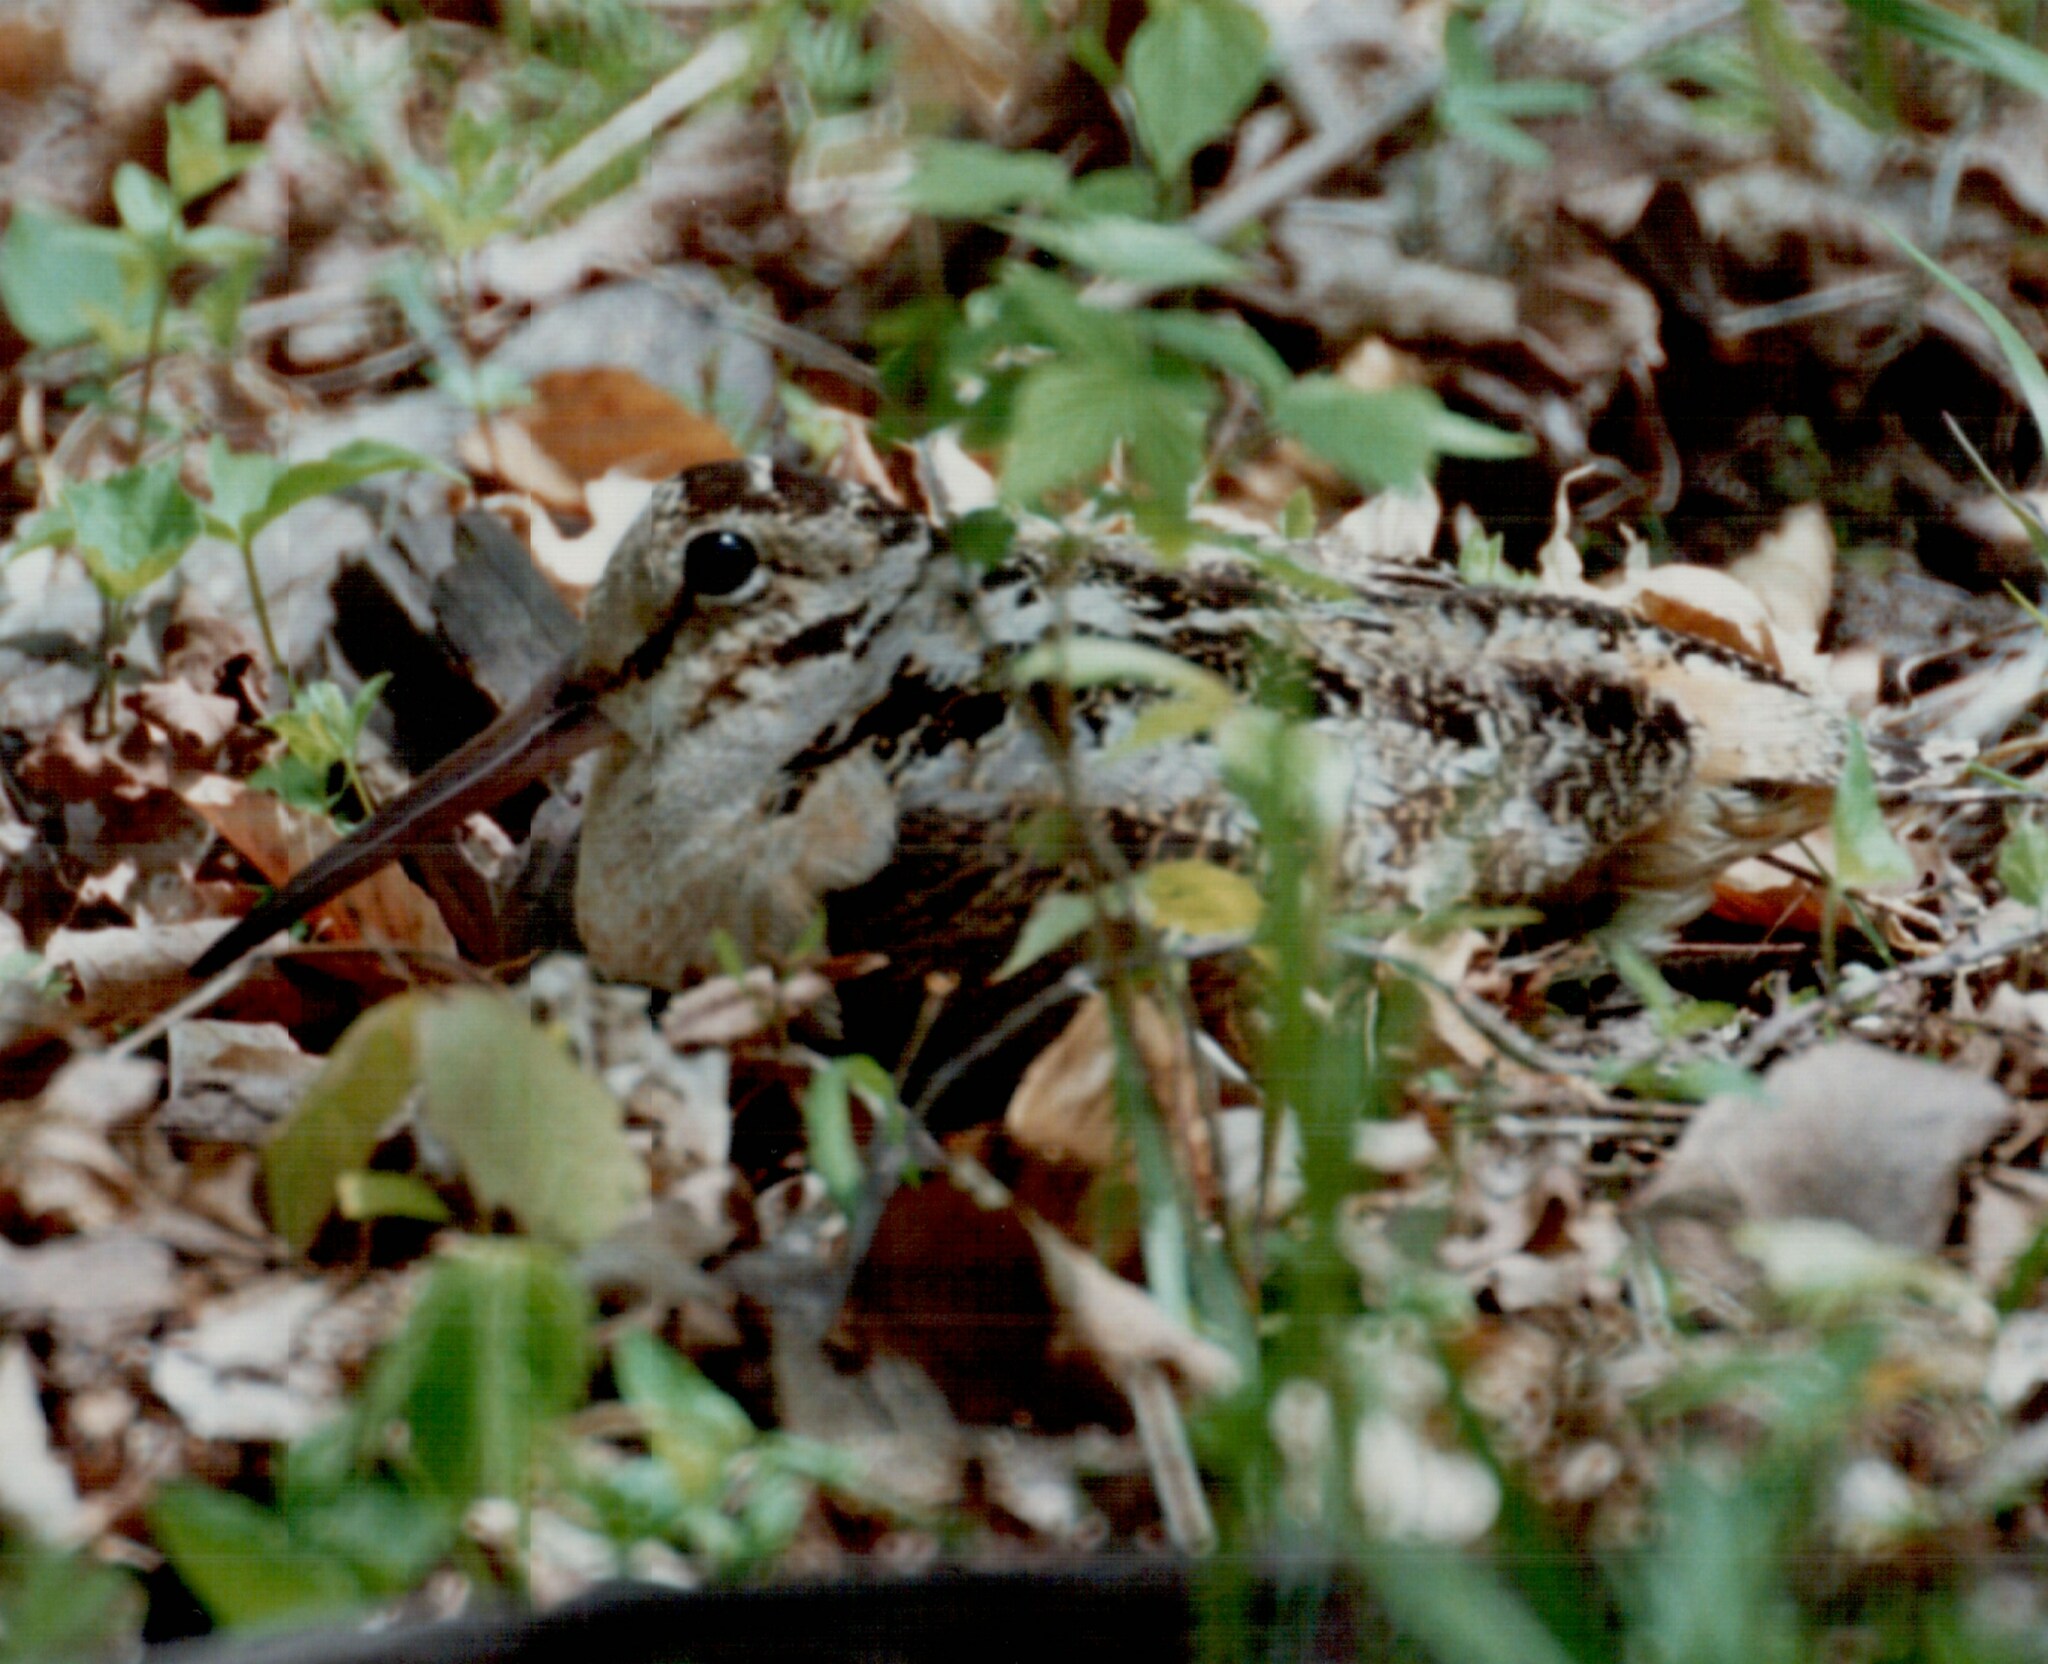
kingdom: Animalia
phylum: Chordata
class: Aves
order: Charadriiformes
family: Scolopacidae
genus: Scolopax
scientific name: Scolopax minor
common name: American woodcock
